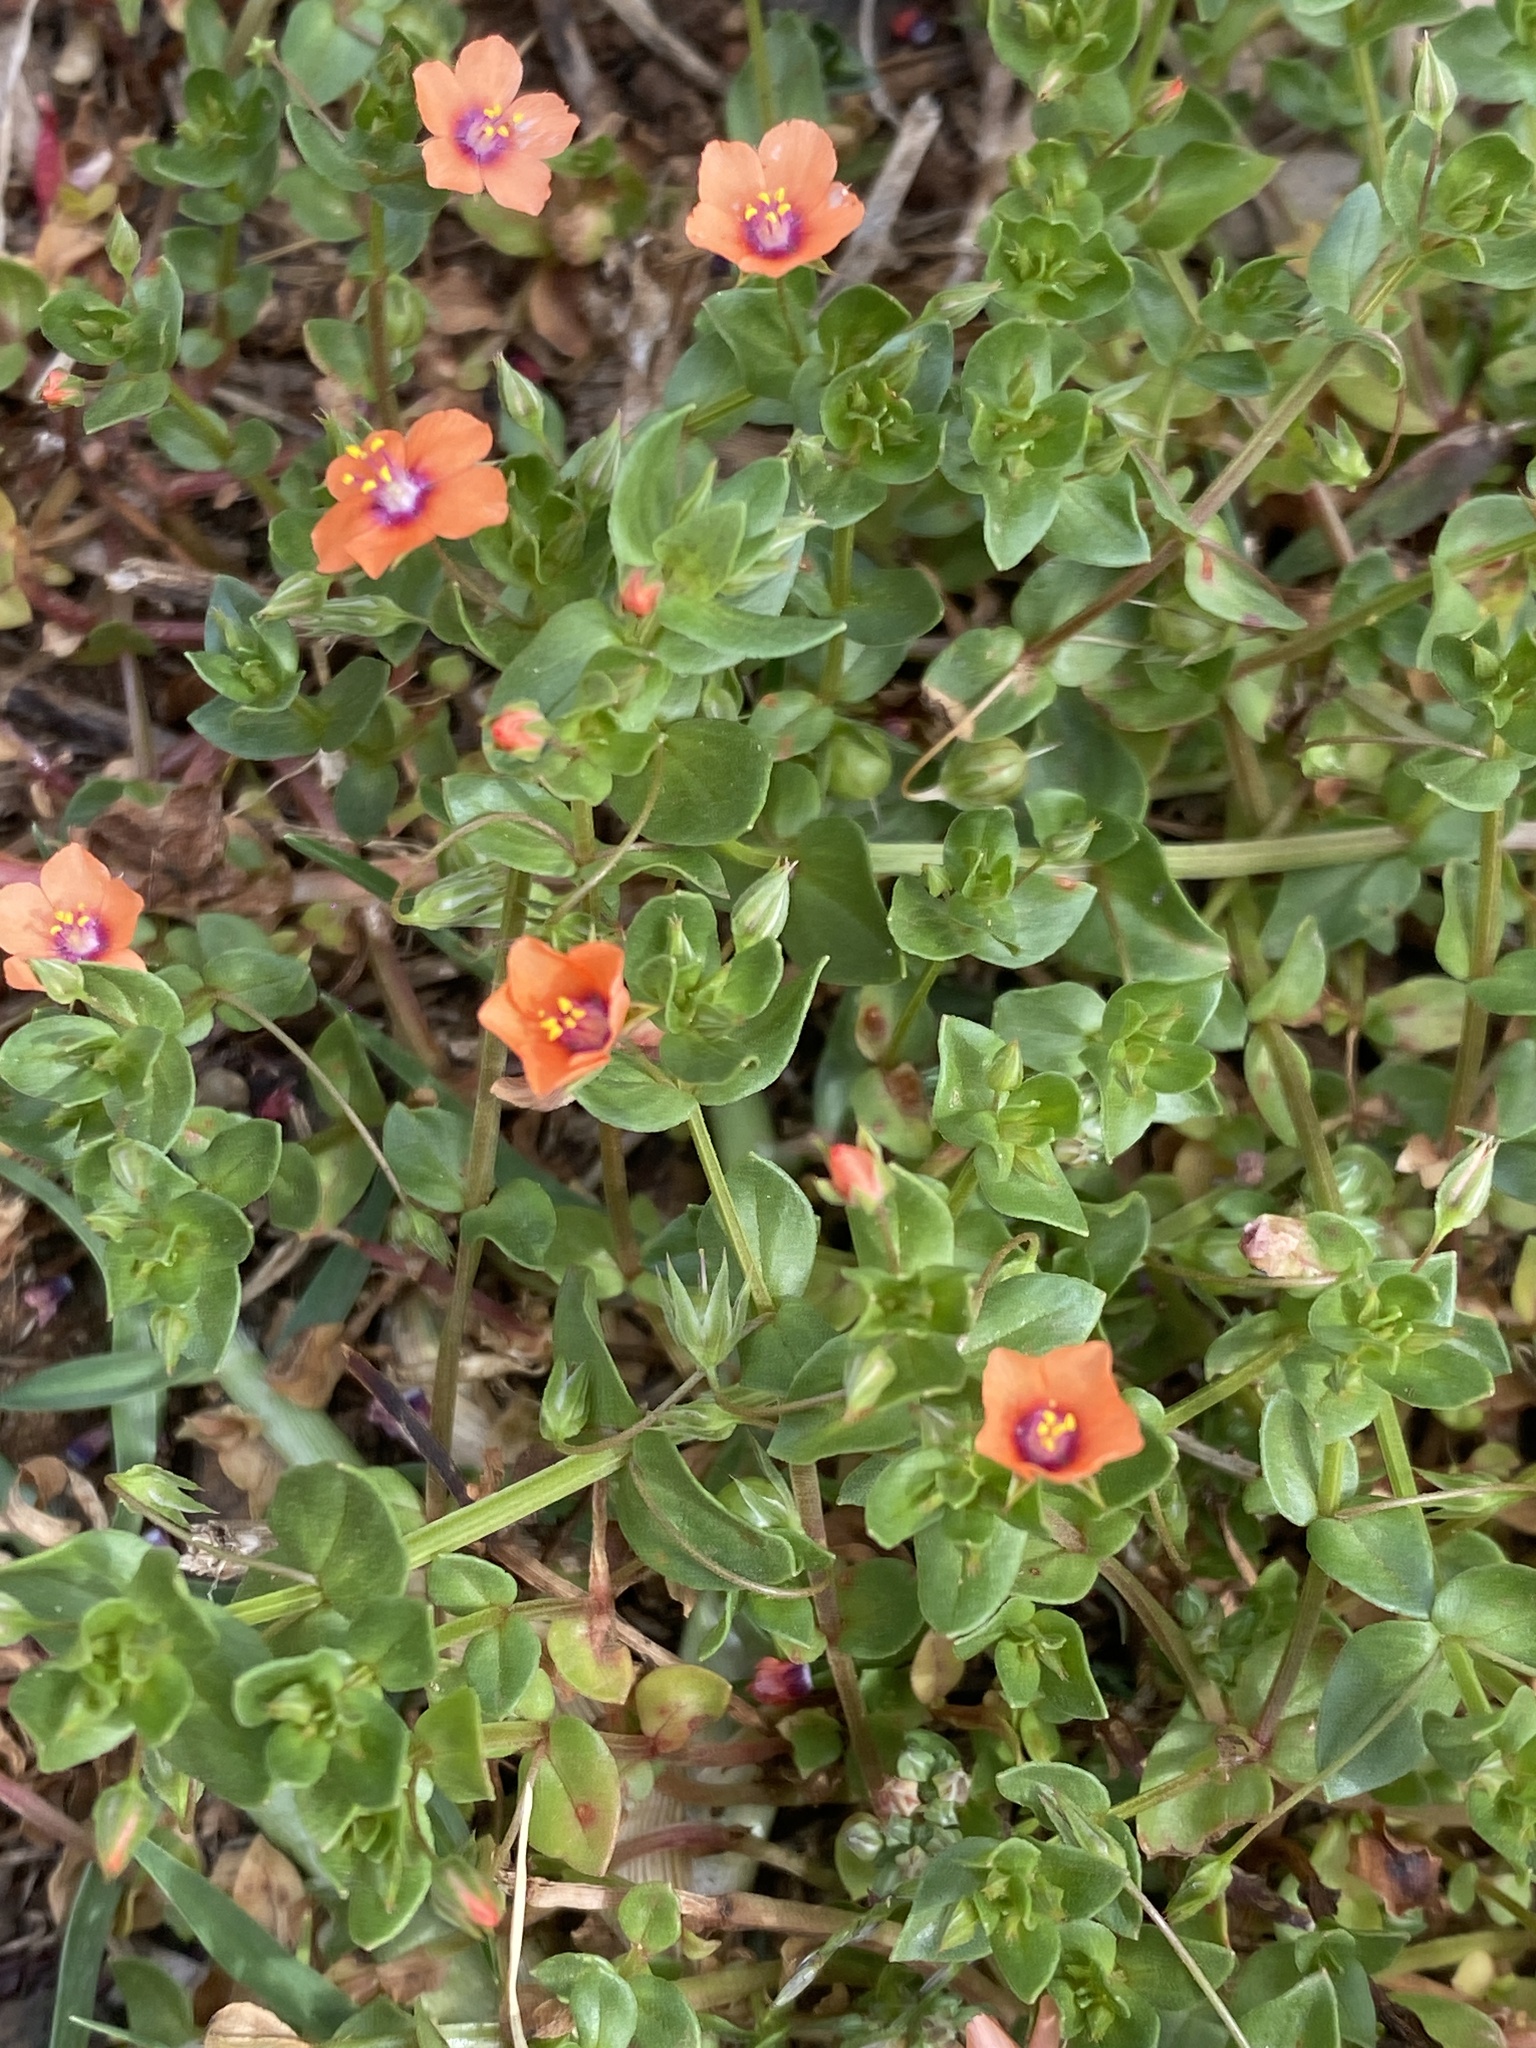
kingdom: Plantae
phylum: Tracheophyta
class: Magnoliopsida
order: Ericales
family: Primulaceae
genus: Lysimachia
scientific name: Lysimachia arvensis
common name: Scarlet pimpernel
